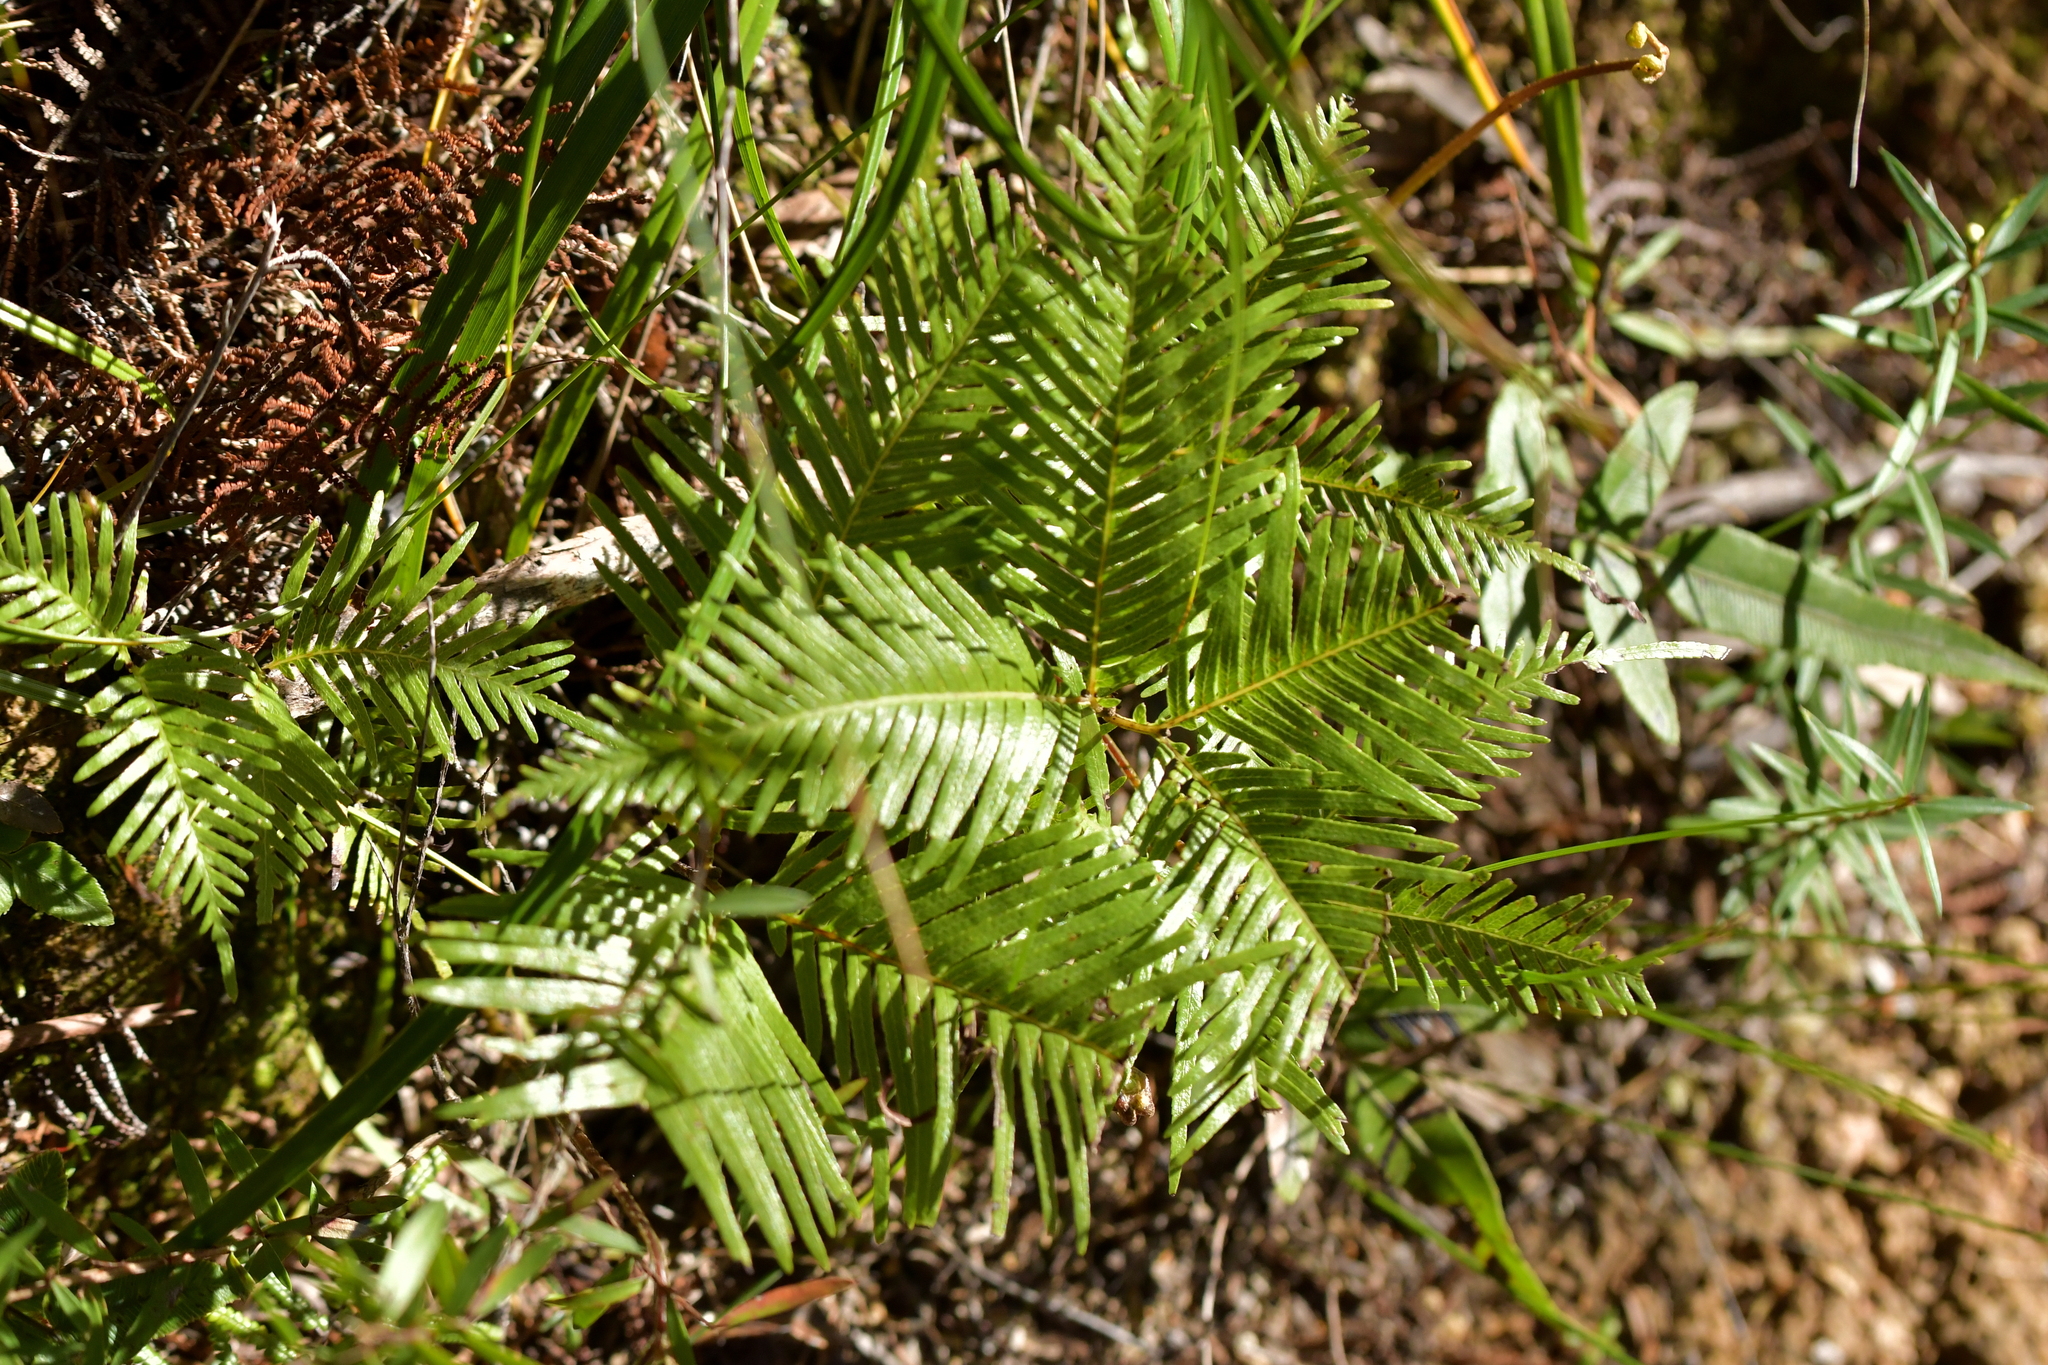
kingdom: Plantae
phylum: Tracheophyta
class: Polypodiopsida
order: Gleicheniales
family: Gleicheniaceae
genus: Sticherus
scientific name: Sticherus flabellatus
